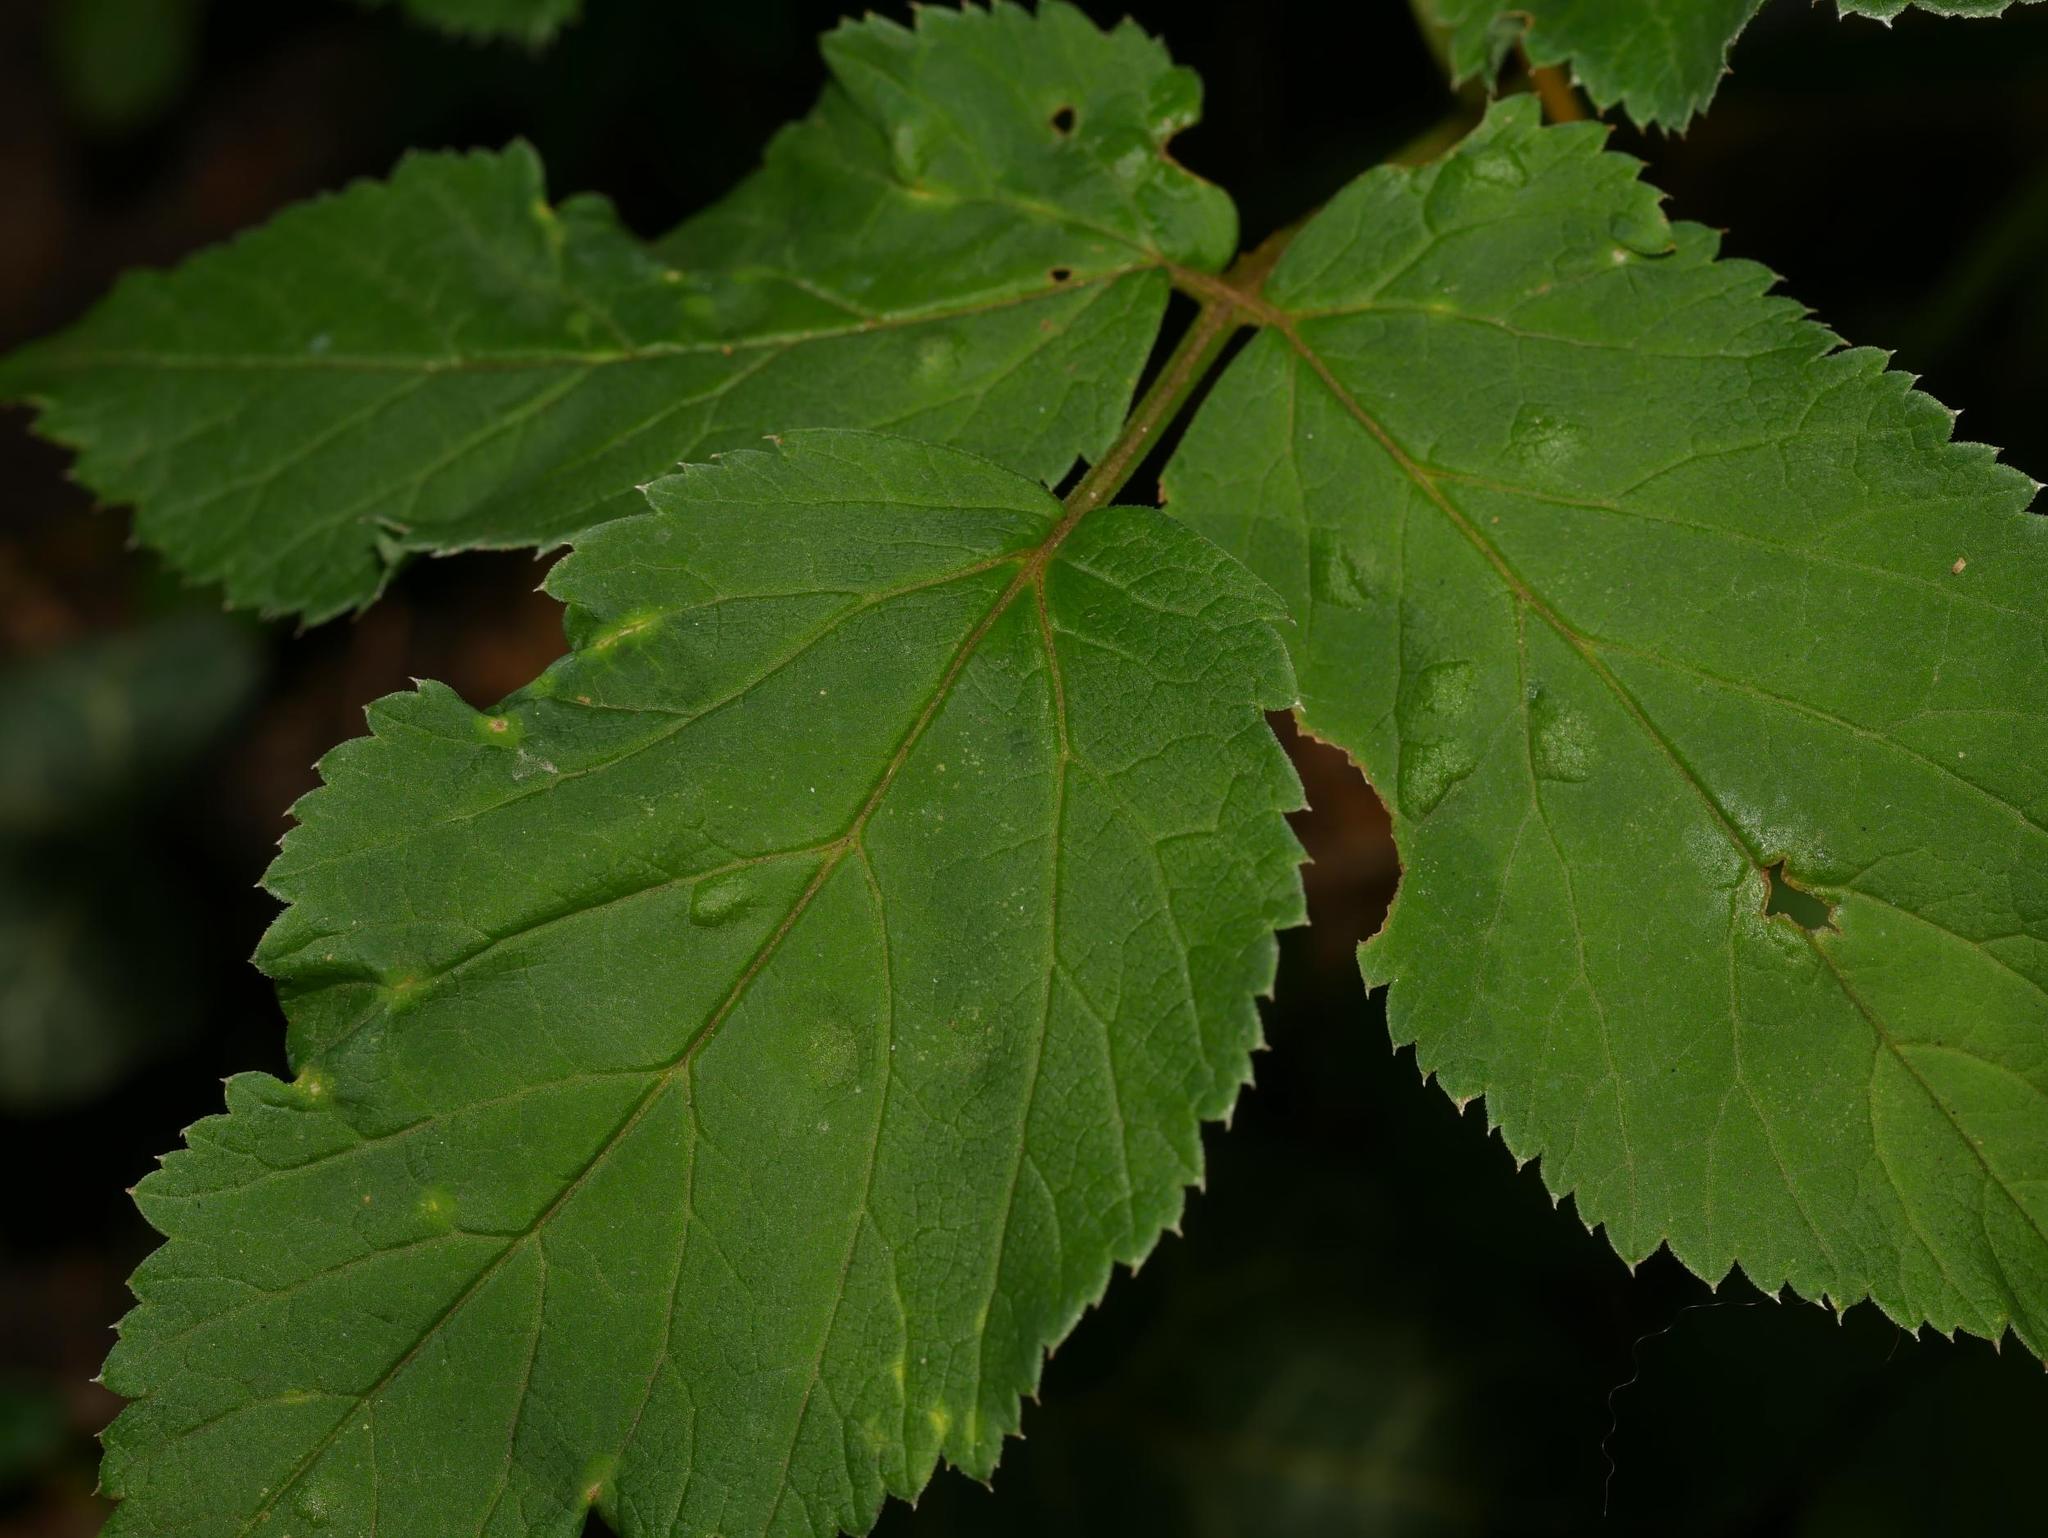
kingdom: Plantae
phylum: Tracheophyta
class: Magnoliopsida
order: Apiales
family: Apiaceae
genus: Aegopodium
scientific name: Aegopodium podagraria
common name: Ground-elder
